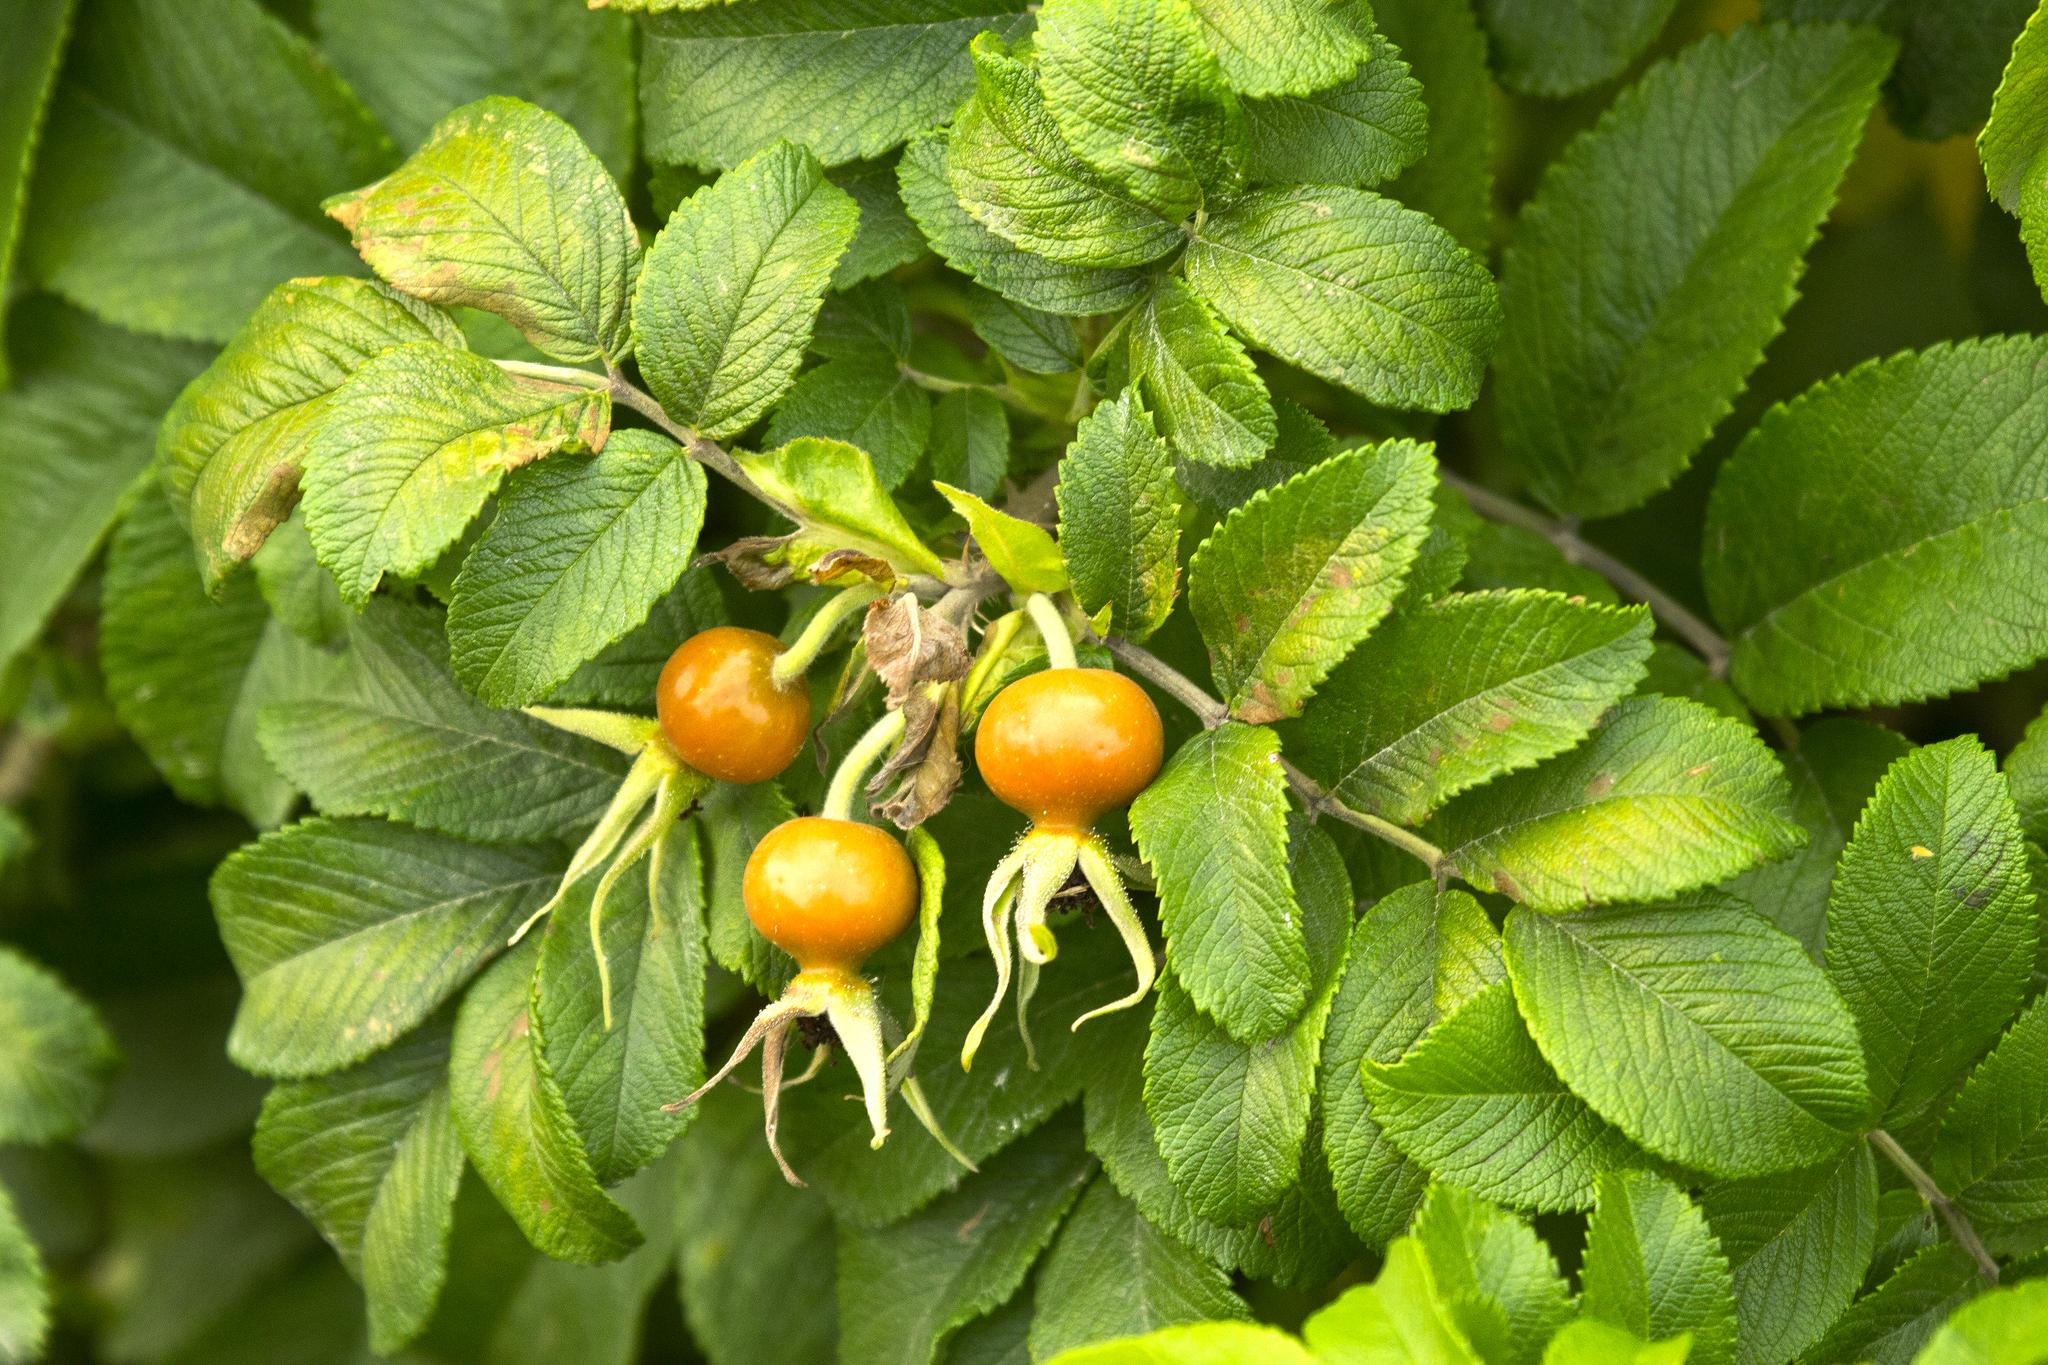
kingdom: Plantae
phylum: Tracheophyta
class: Magnoliopsida
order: Rosales
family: Rosaceae
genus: Rosa
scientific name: Rosa rugosa
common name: Japanese rose
